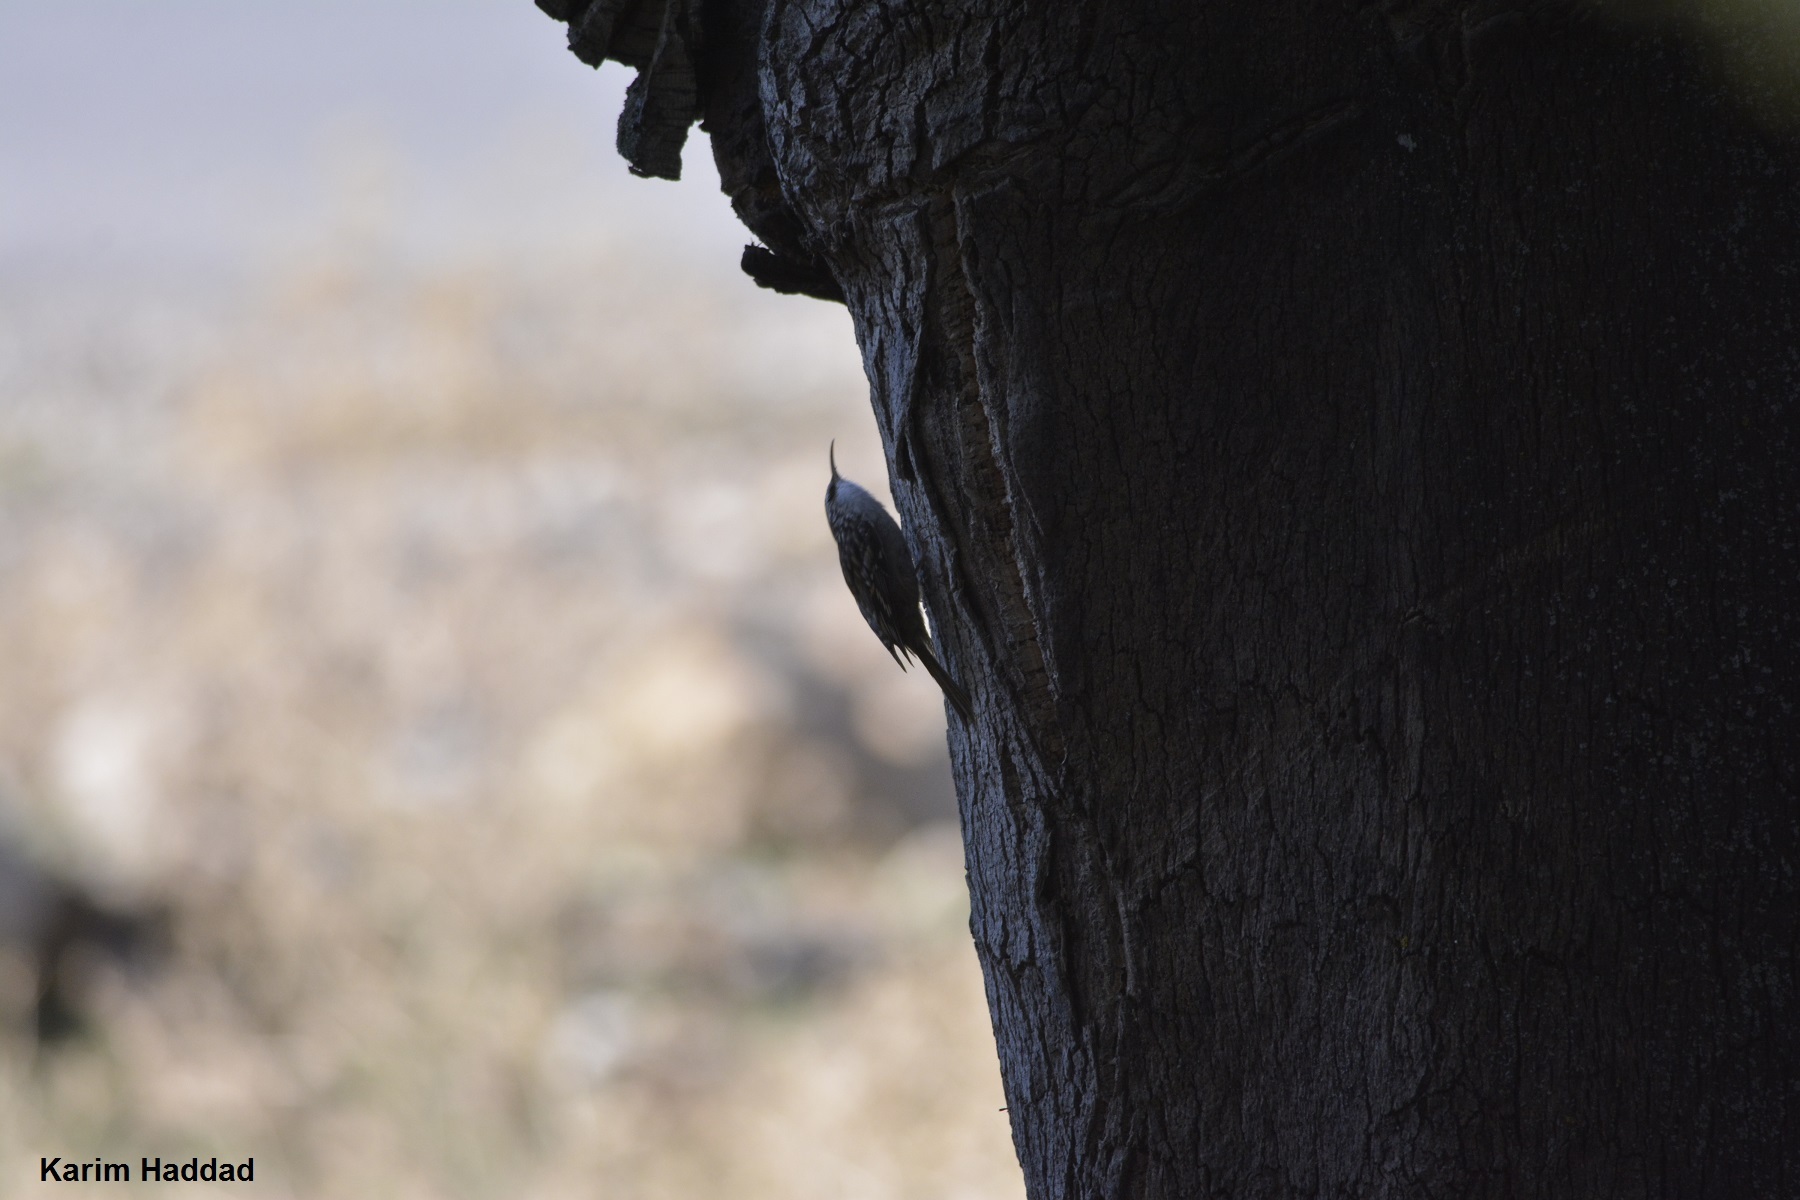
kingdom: Animalia
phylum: Chordata
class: Aves
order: Passeriformes
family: Certhiidae
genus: Certhia
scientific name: Certhia brachydactyla
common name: Short-toed treecreeper
